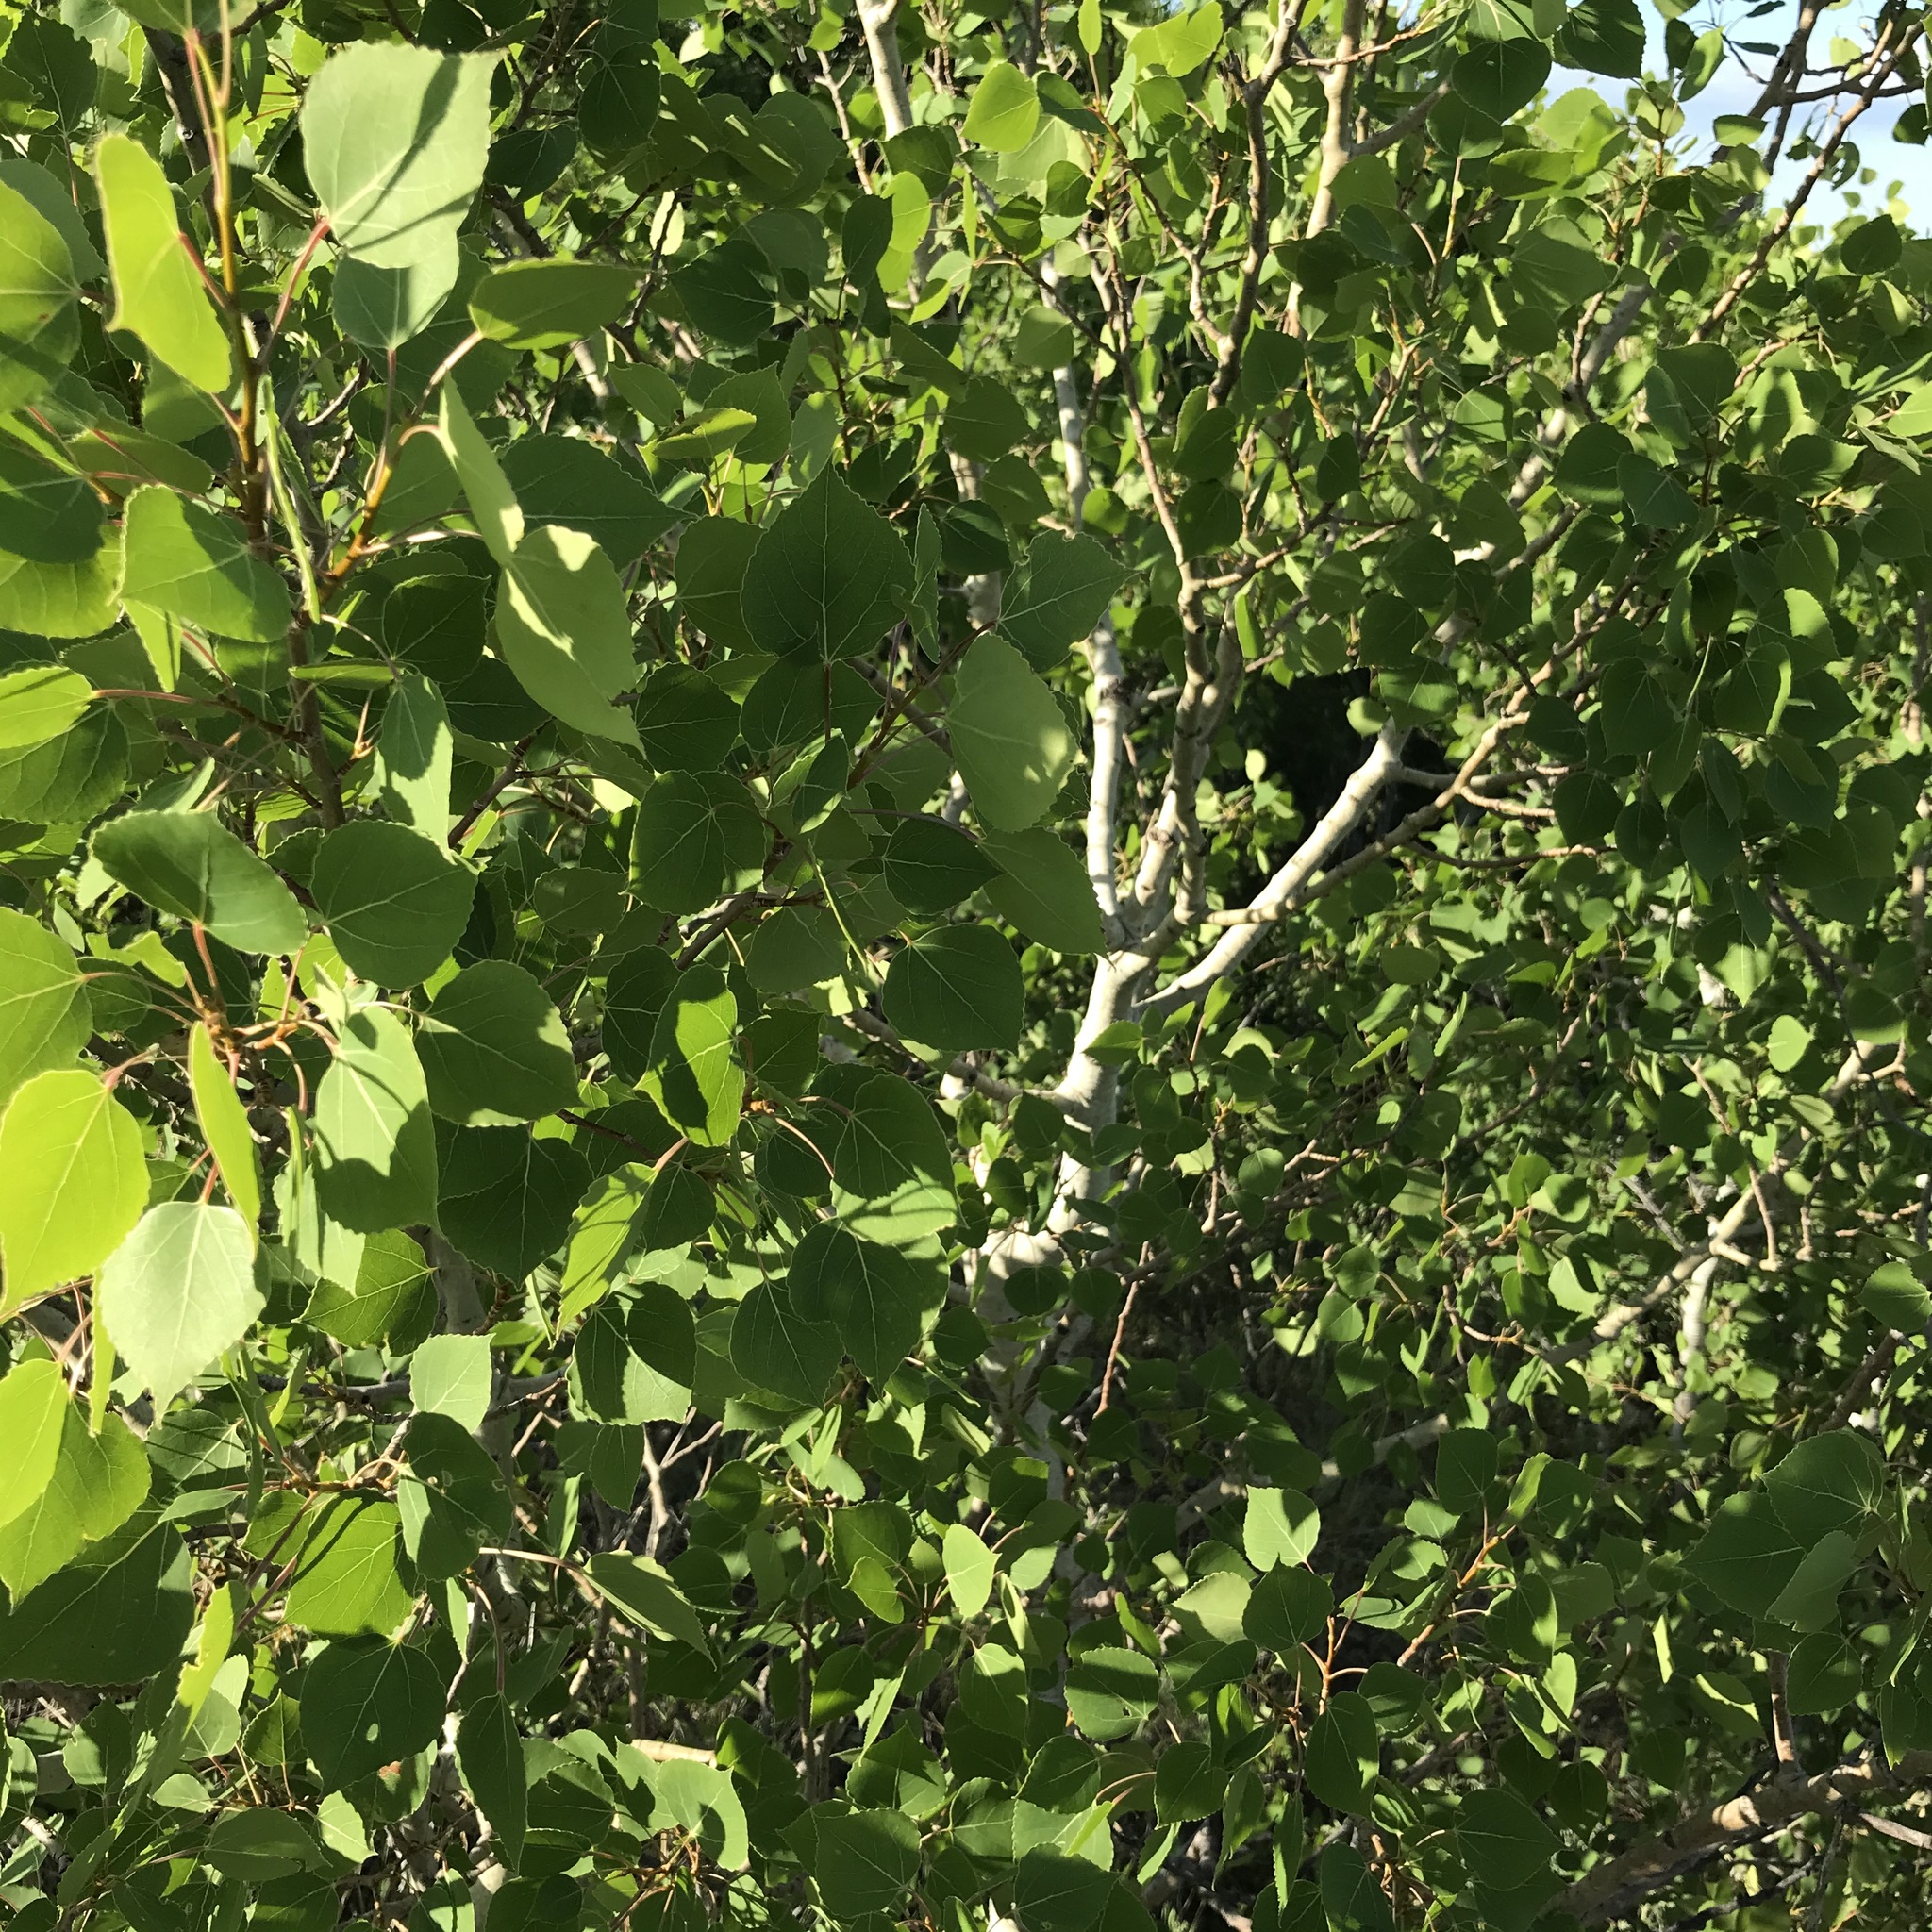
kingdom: Plantae
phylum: Tracheophyta
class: Magnoliopsida
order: Malpighiales
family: Salicaceae
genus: Populus
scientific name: Populus tremuloides
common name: Quaking aspen
